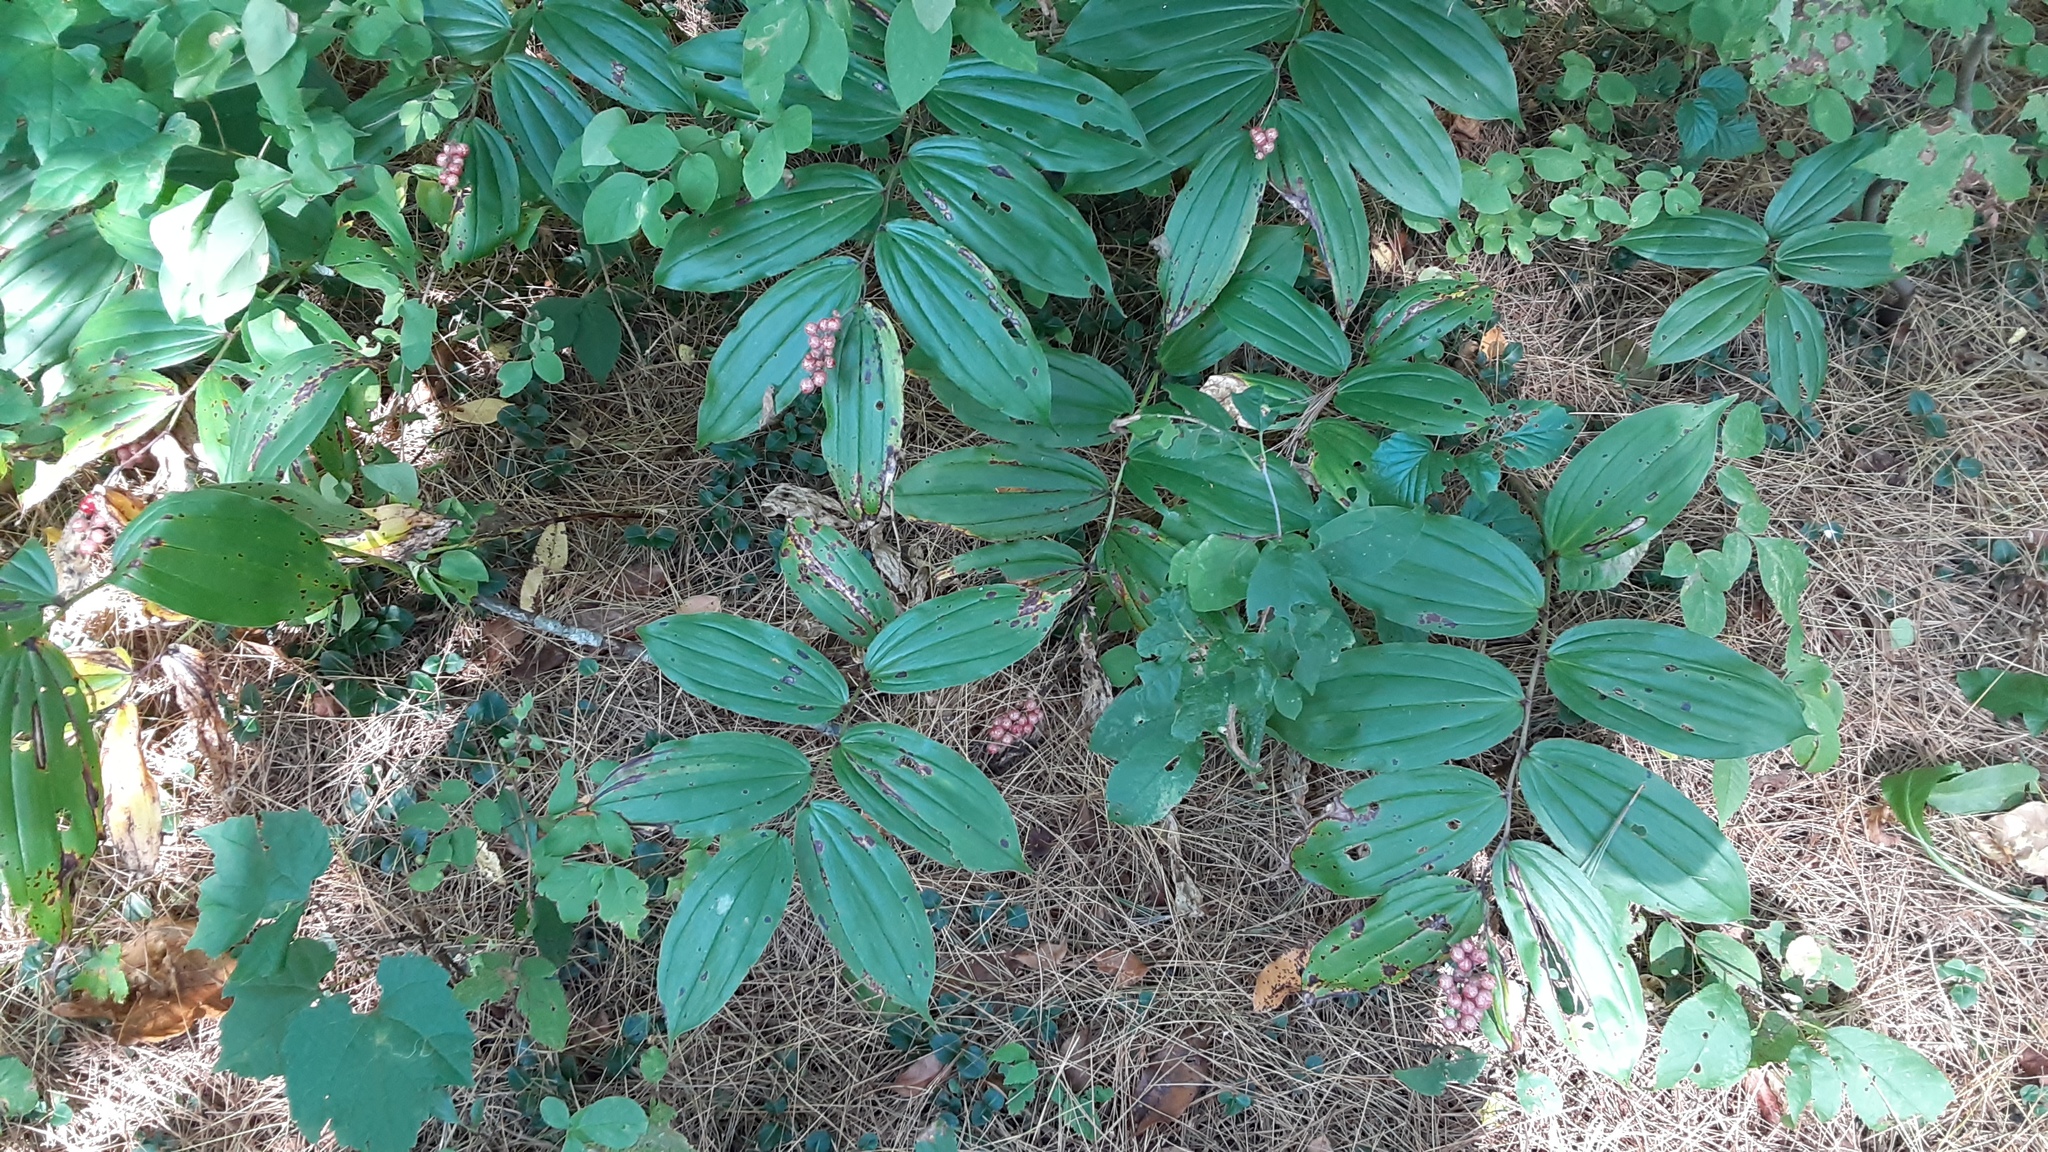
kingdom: Plantae
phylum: Tracheophyta
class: Liliopsida
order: Asparagales
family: Asparagaceae
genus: Maianthemum
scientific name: Maianthemum racemosum
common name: False spikenard
